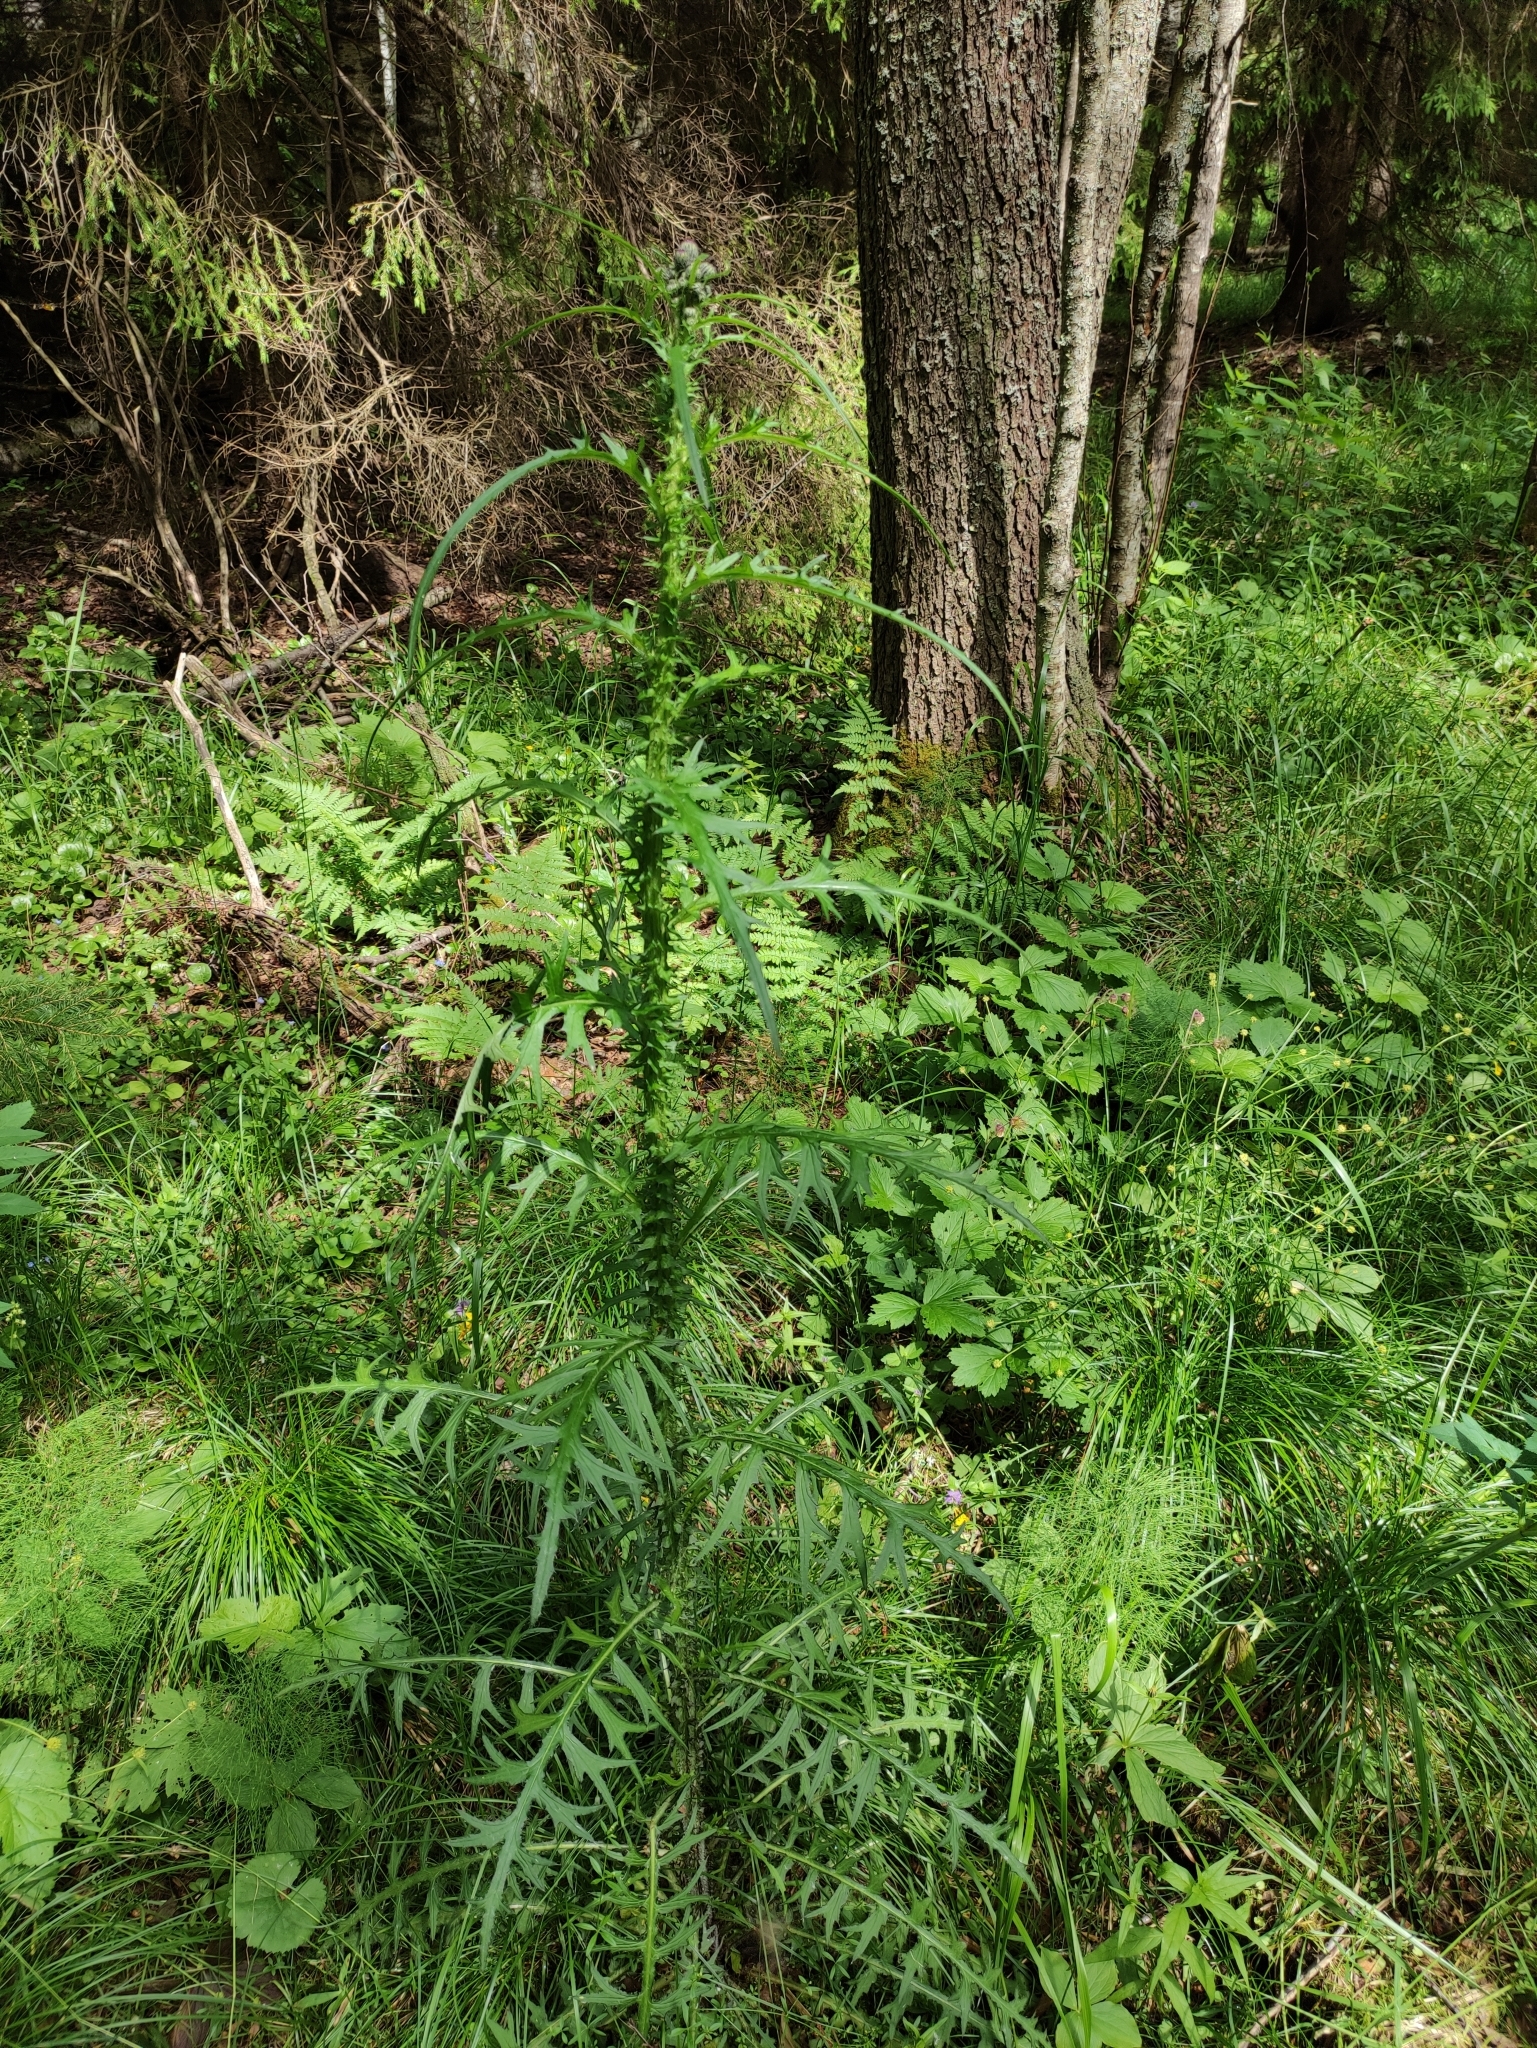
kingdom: Plantae
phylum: Tracheophyta
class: Magnoliopsida
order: Asterales
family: Asteraceae
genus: Cirsium
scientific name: Cirsium palustre
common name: Marsh thistle
